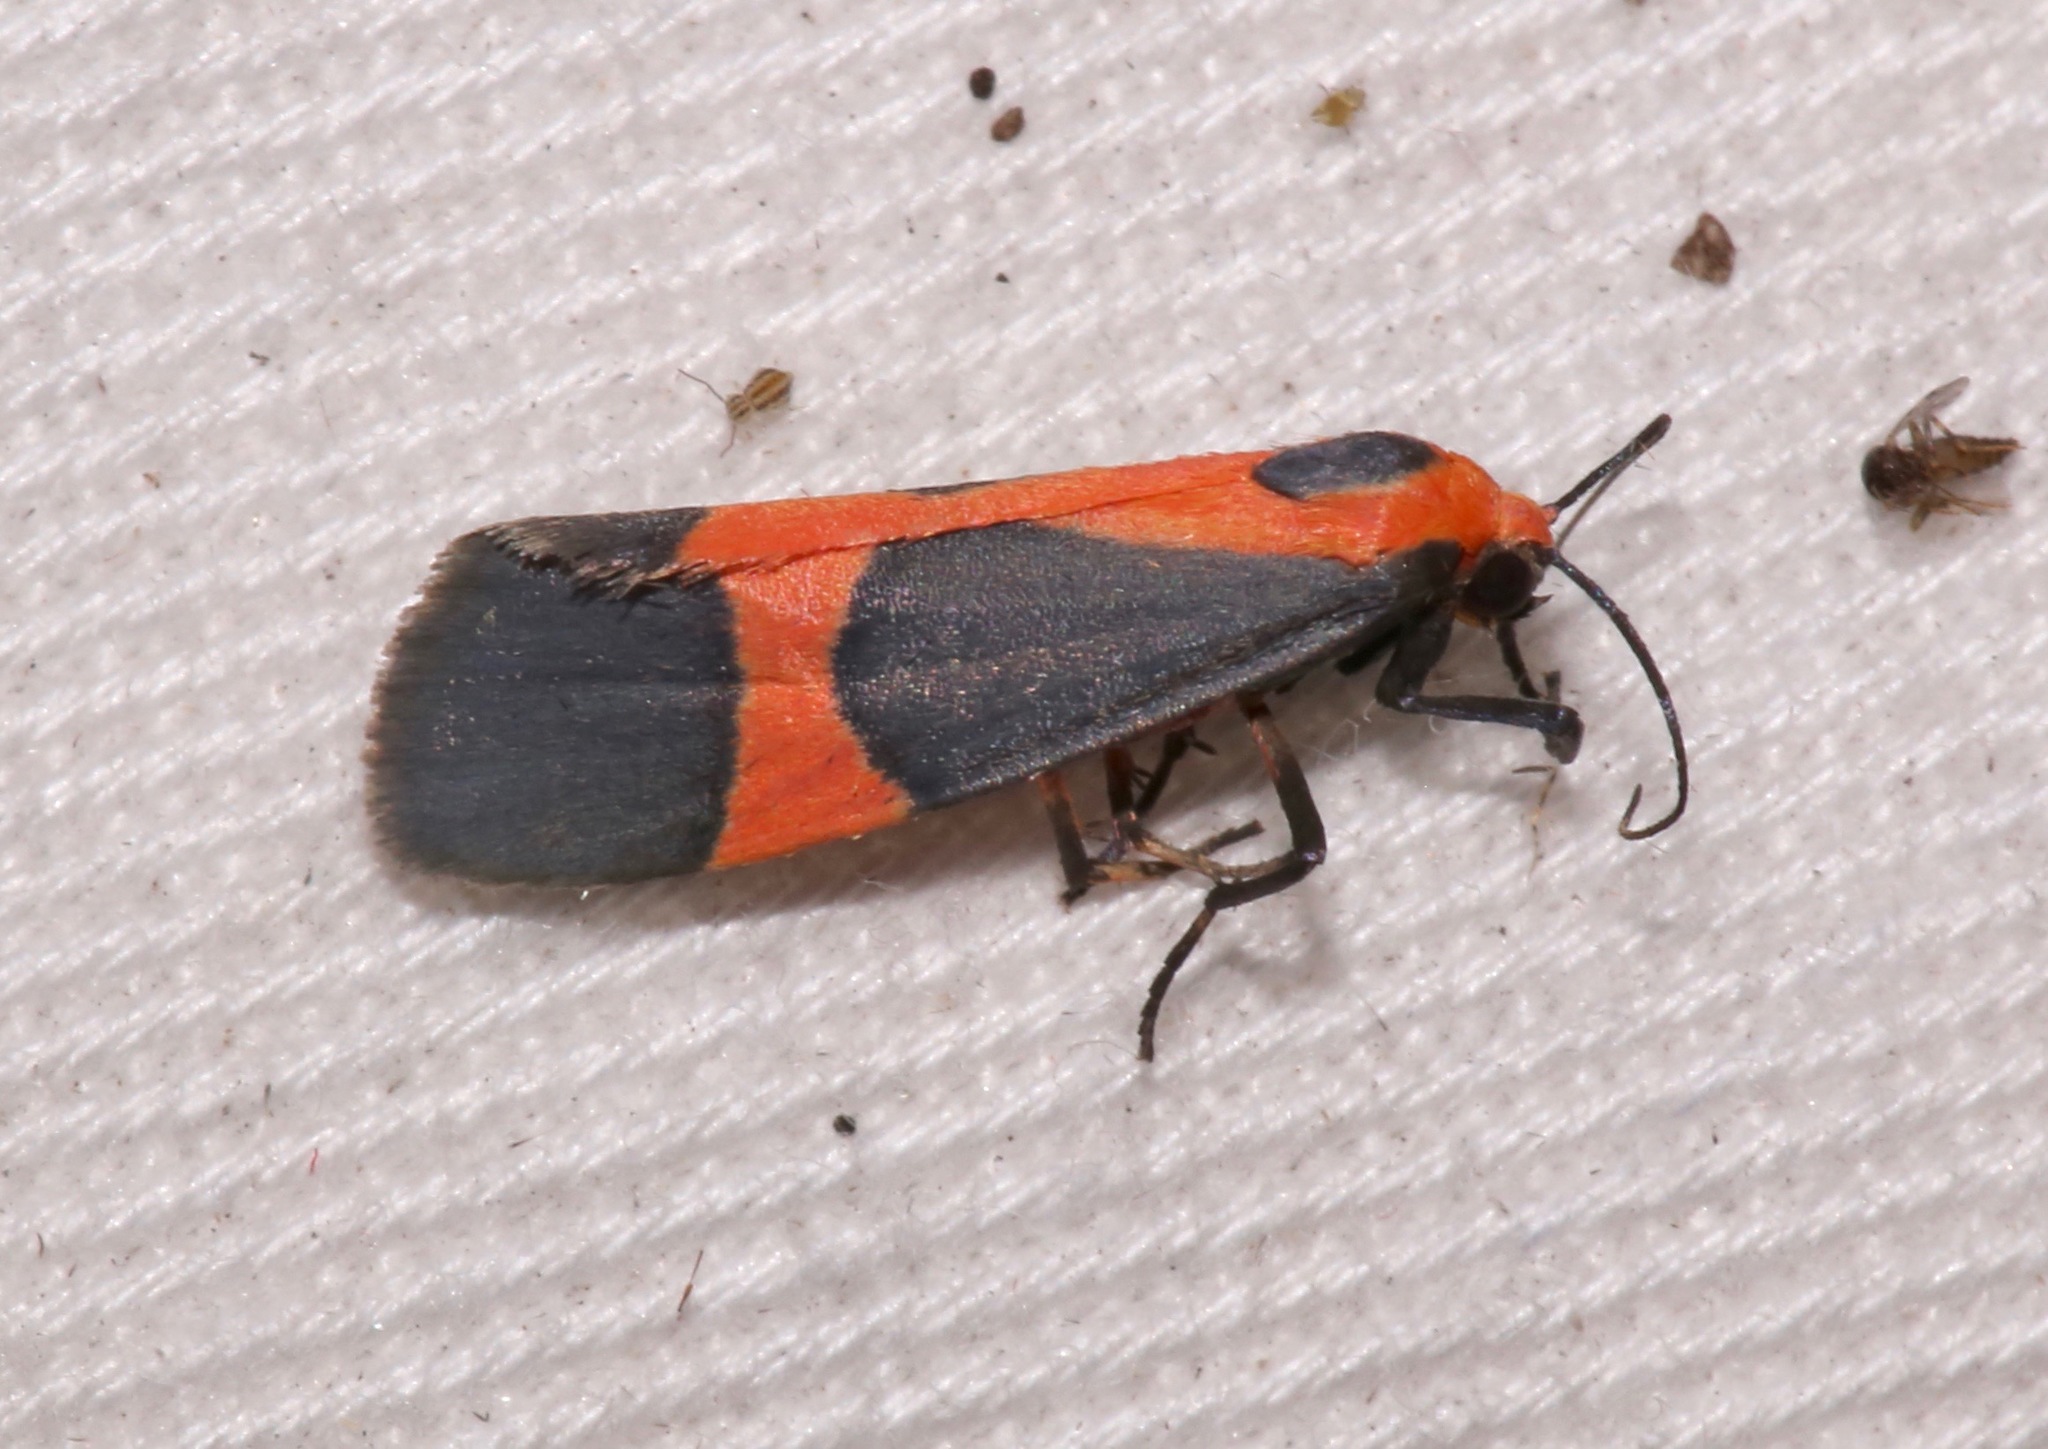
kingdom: Animalia
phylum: Arthropoda
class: Insecta
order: Lepidoptera
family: Erebidae
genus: Cisthene
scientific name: Cisthene martini
